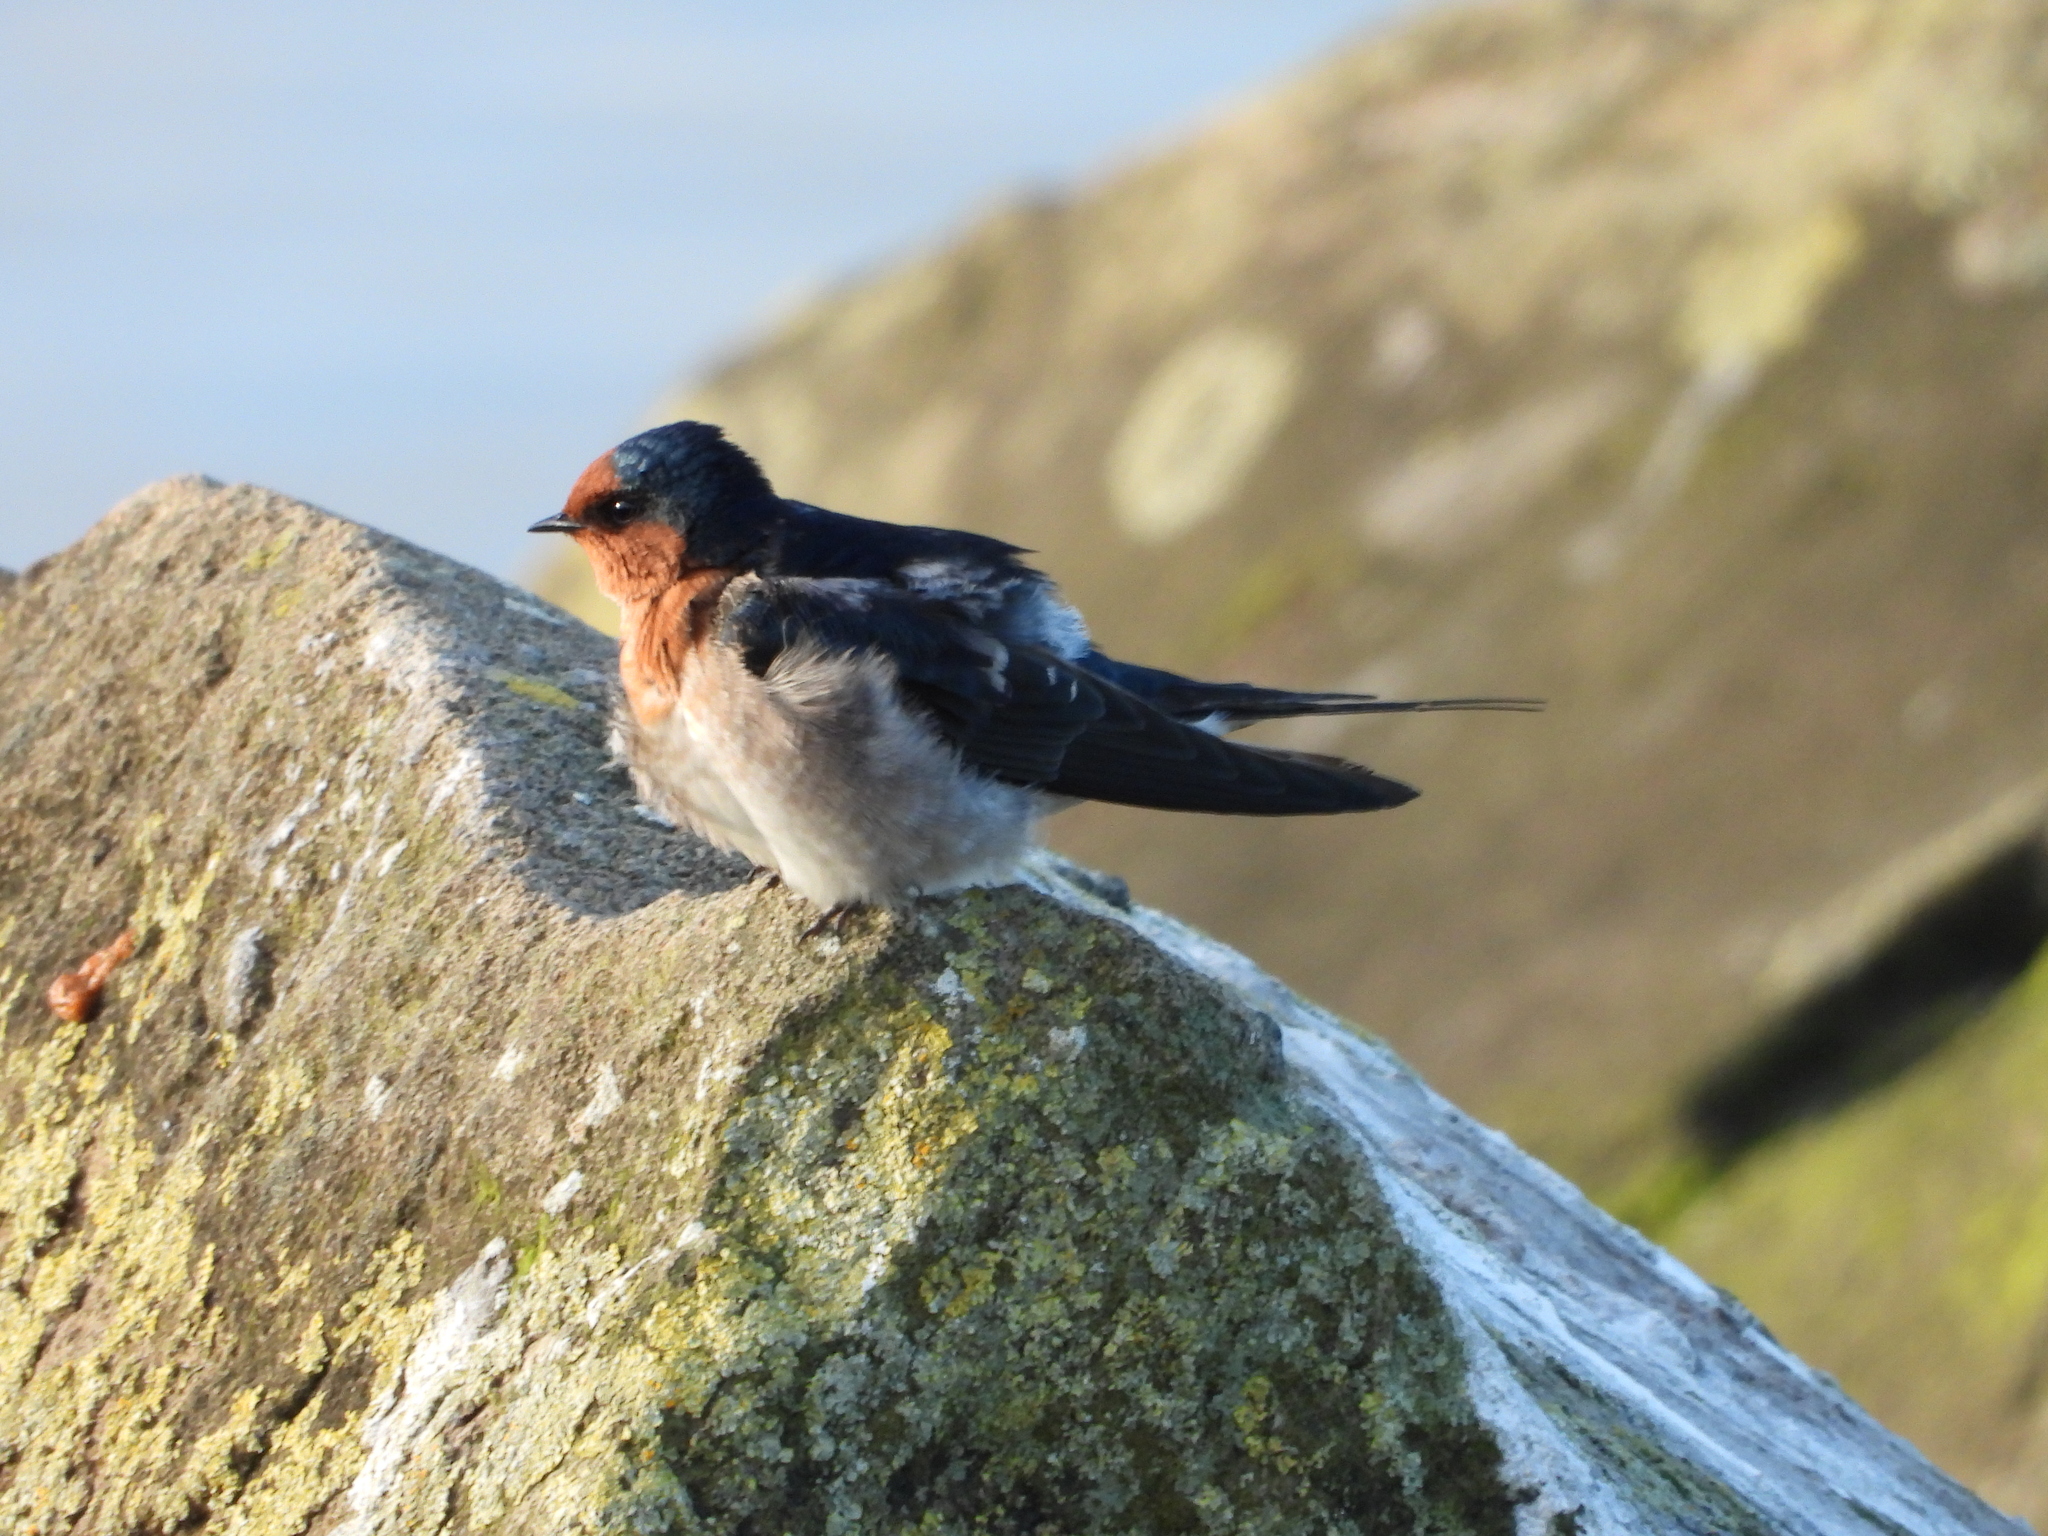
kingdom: Animalia
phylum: Chordata
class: Aves
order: Passeriformes
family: Hirundinidae
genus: Hirundo
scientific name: Hirundo neoxena
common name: Welcome swallow
